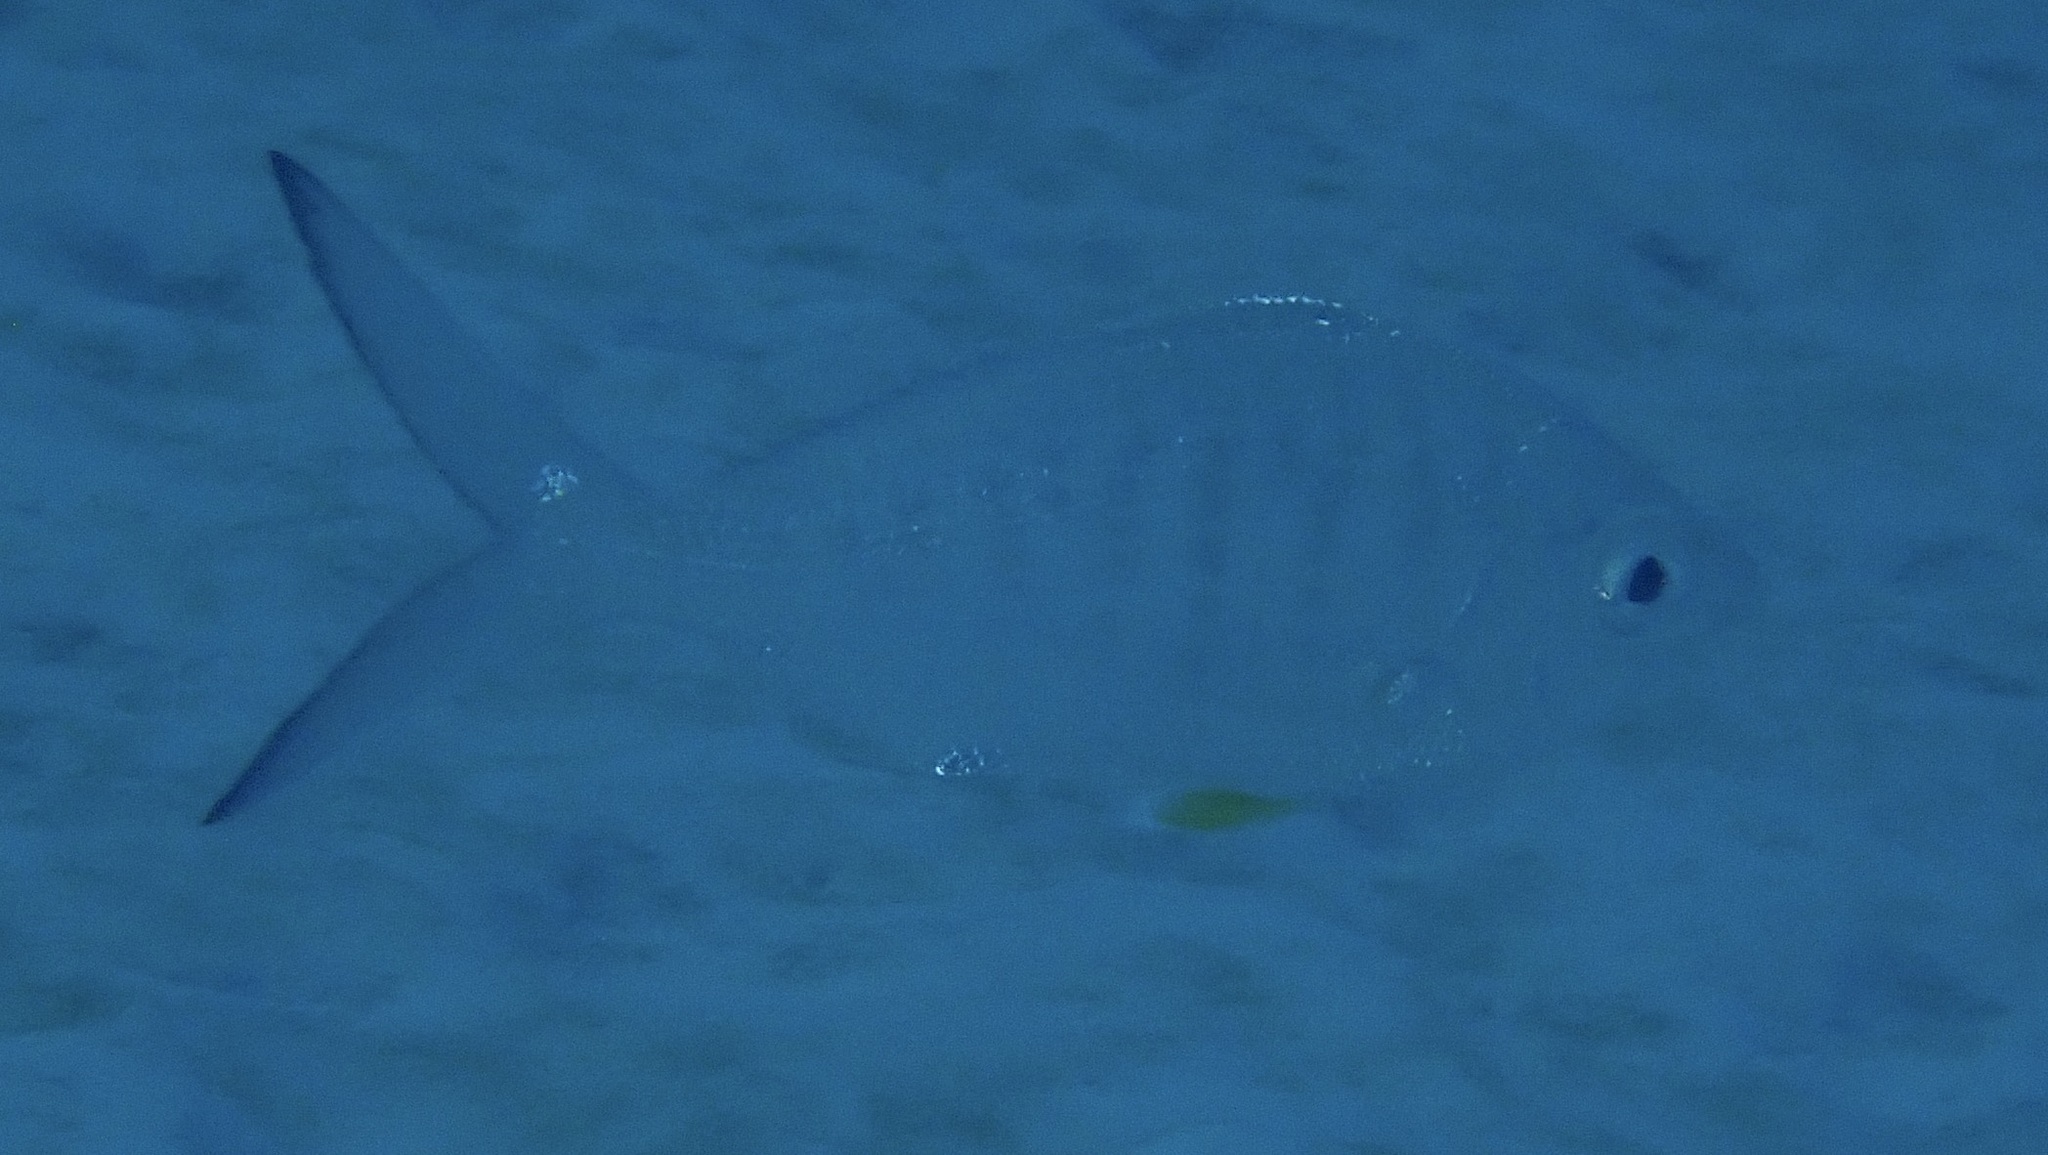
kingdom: Animalia
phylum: Chordata
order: Perciformes
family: Gerreidae
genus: Gerres
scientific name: Gerres cinereus
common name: Hedow
